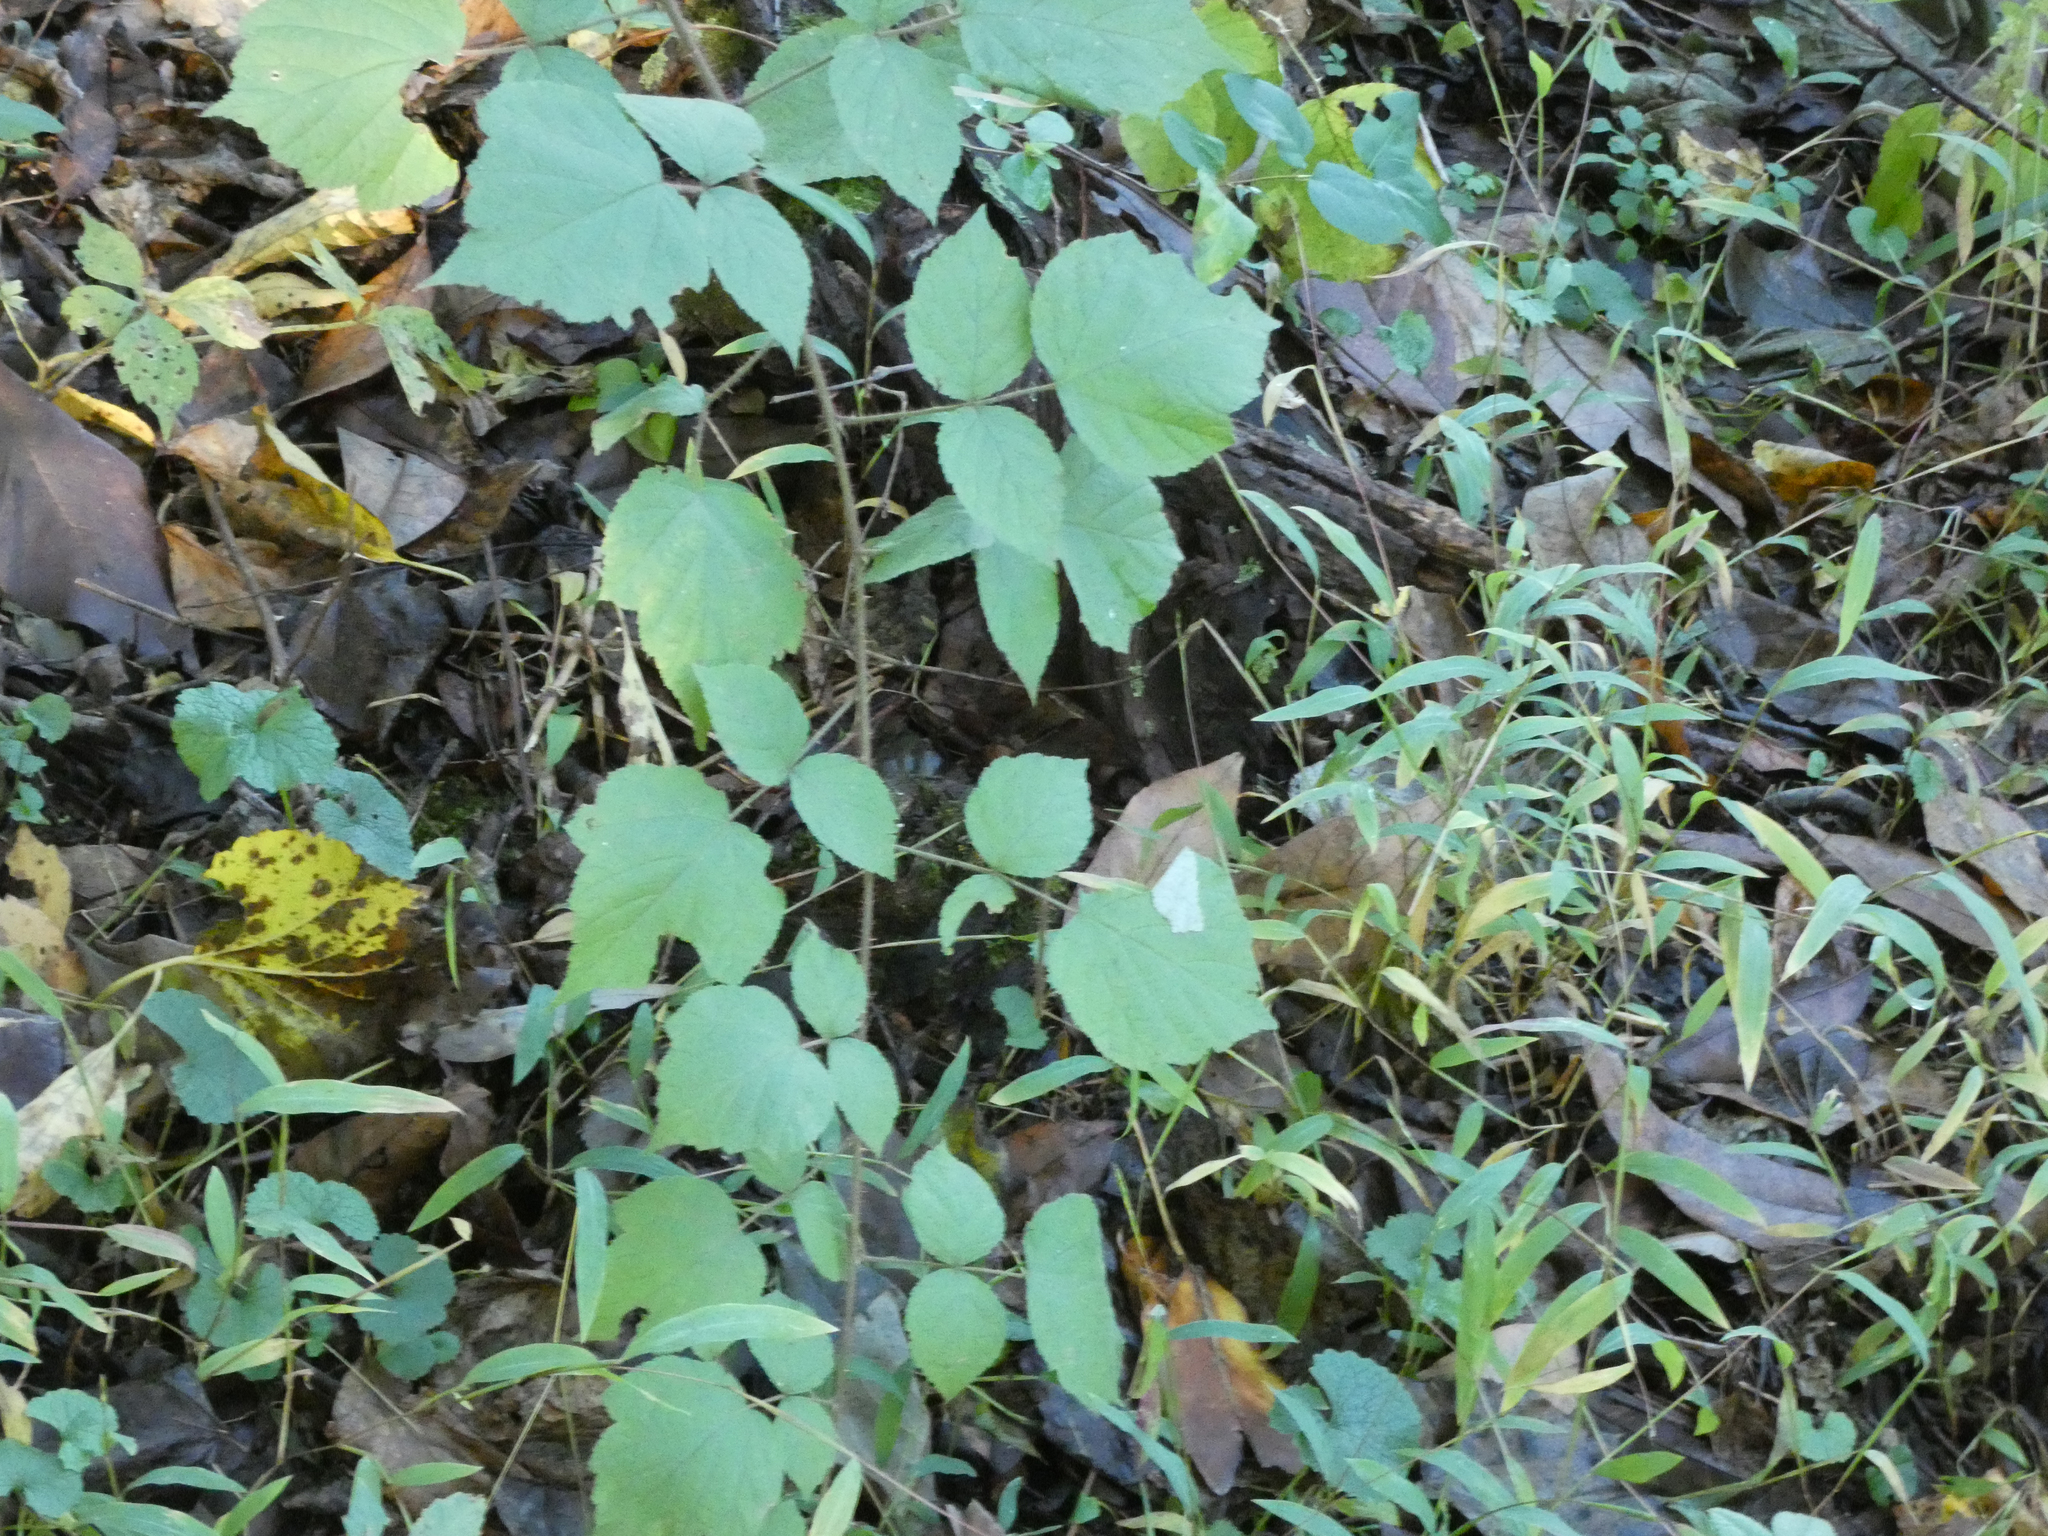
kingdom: Plantae
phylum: Tracheophyta
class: Magnoliopsida
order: Rosales
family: Rosaceae
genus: Rubus
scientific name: Rubus phoenicolasius
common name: Japanese wineberry
